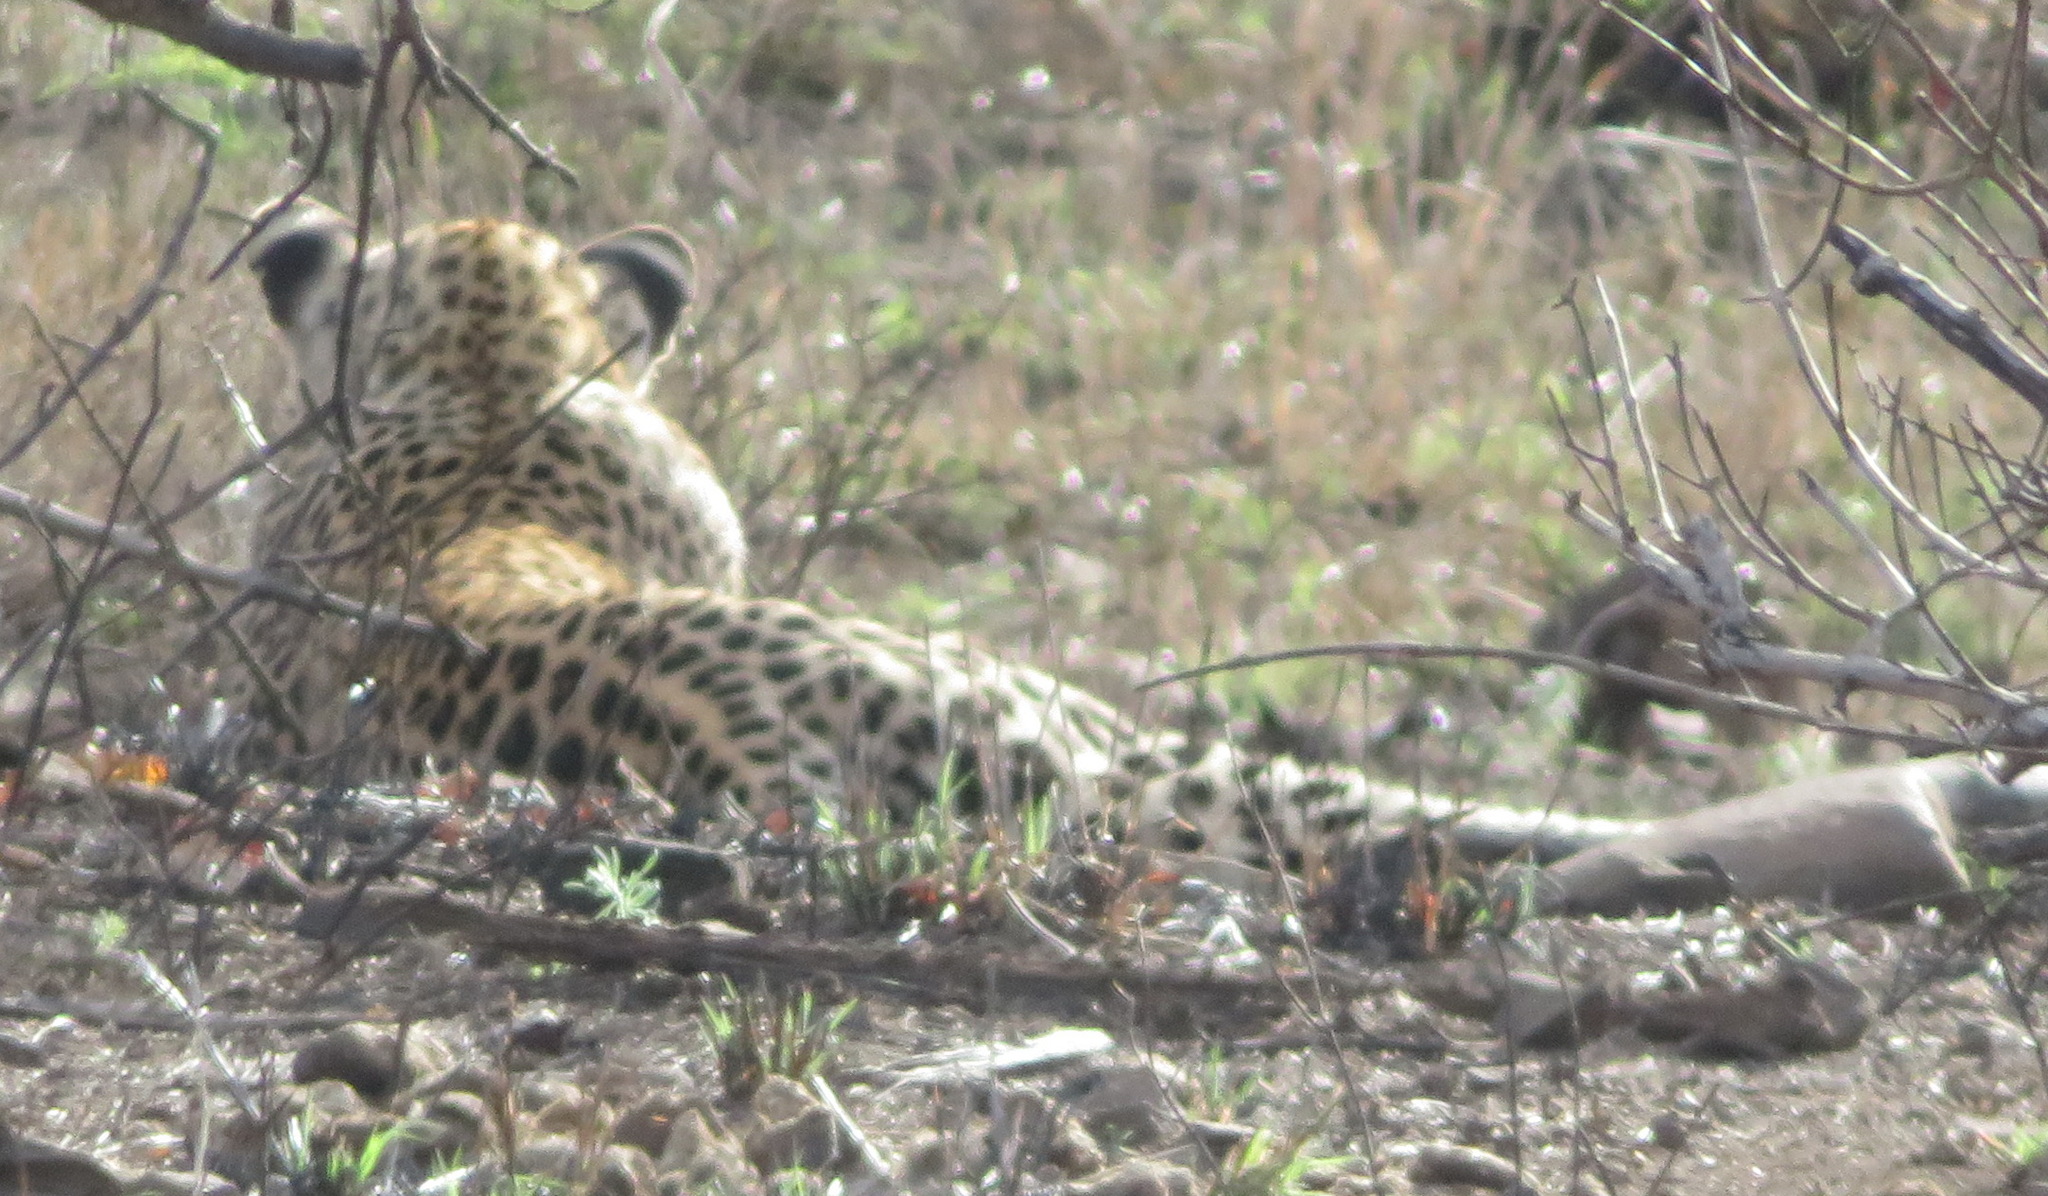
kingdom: Animalia
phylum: Chordata
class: Mammalia
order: Carnivora
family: Felidae
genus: Panthera
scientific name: Panthera pardus
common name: Leopard
